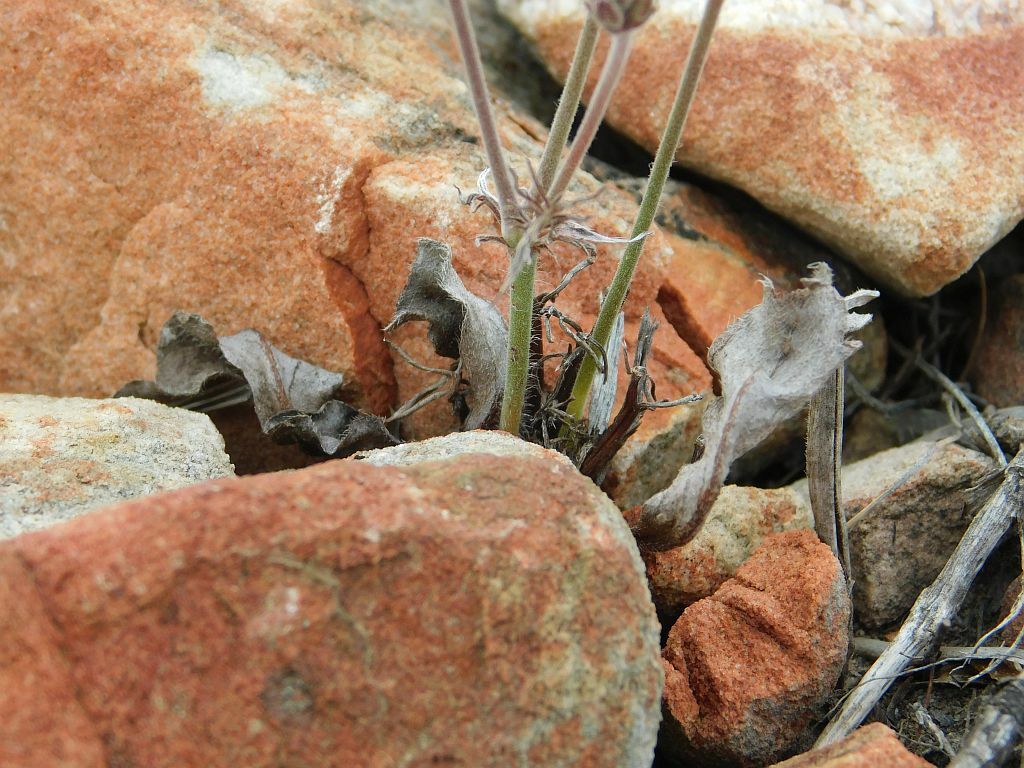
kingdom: Plantae
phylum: Tracheophyta
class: Magnoliopsida
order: Geraniales
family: Geraniaceae
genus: Pelargonium
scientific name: Pelargonium pilosellifolium
